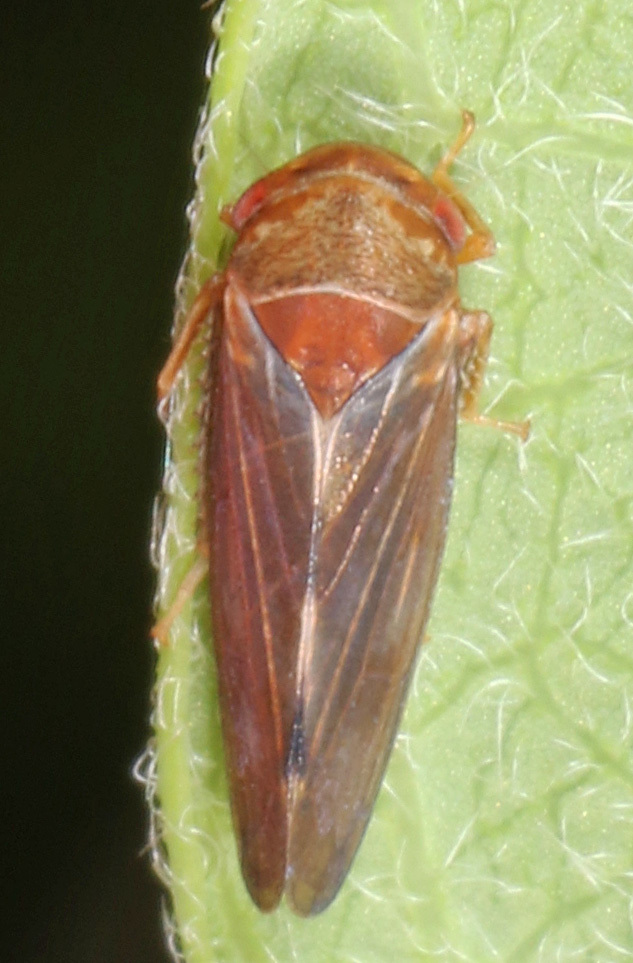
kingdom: Animalia
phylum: Arthropoda
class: Insecta
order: Hemiptera
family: Cicadellidae
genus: Oncopsis
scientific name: Oncopsis minor
